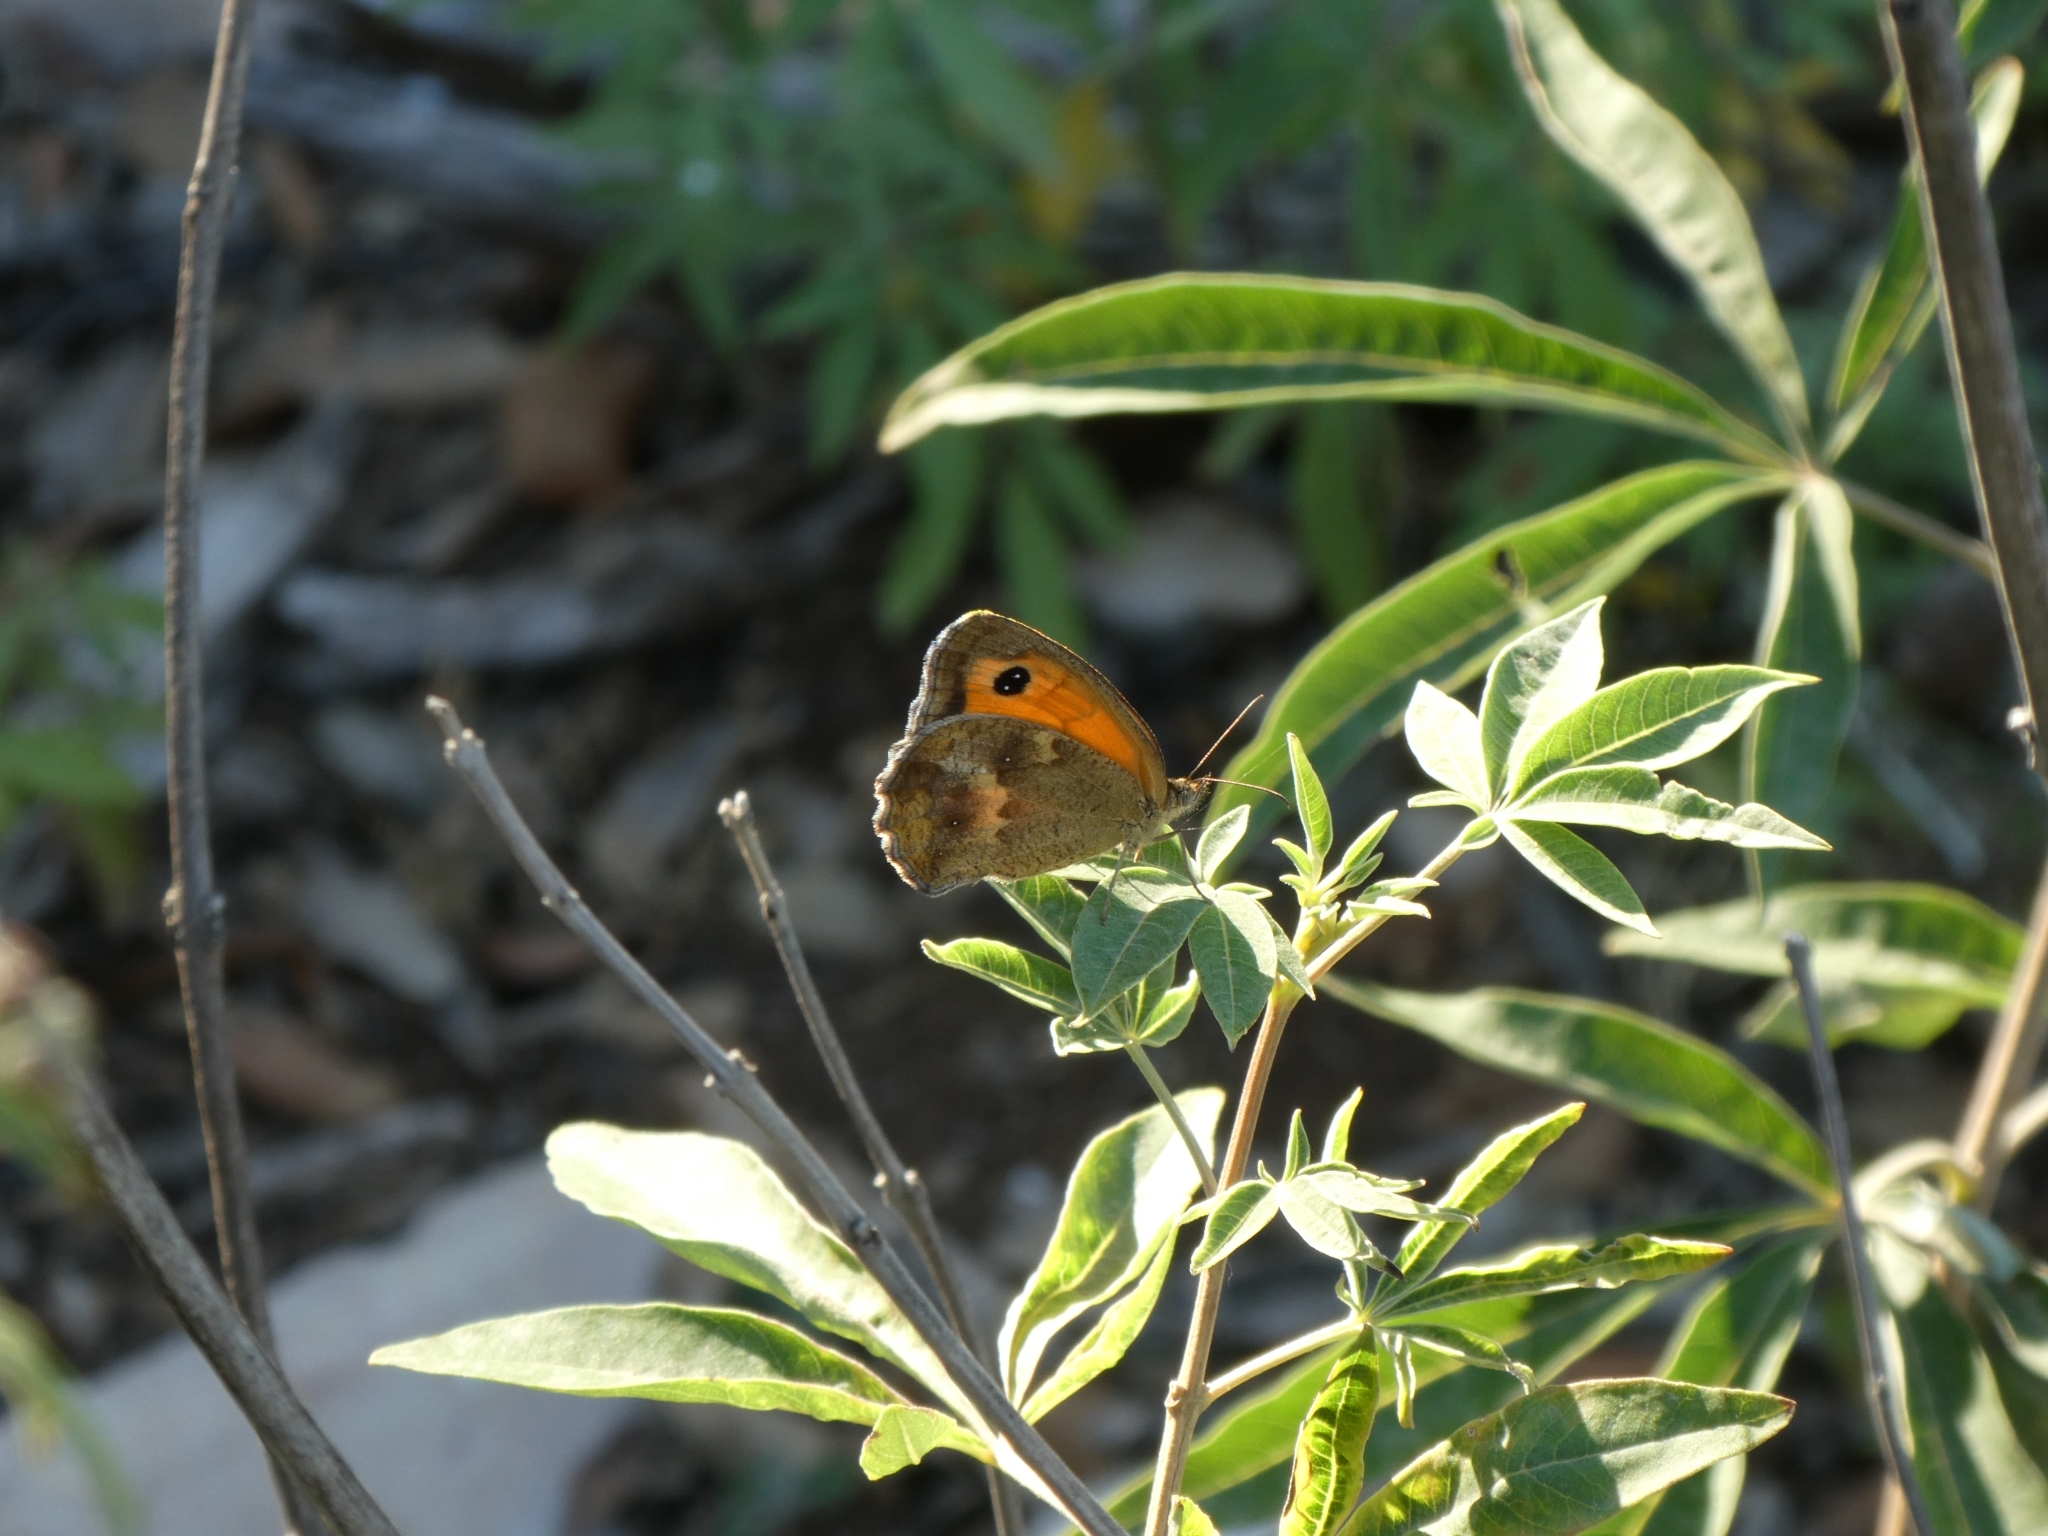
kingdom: Animalia
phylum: Arthropoda
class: Insecta
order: Lepidoptera
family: Nymphalidae
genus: Pyronia
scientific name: Pyronia tithonus
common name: Gatekeeper
